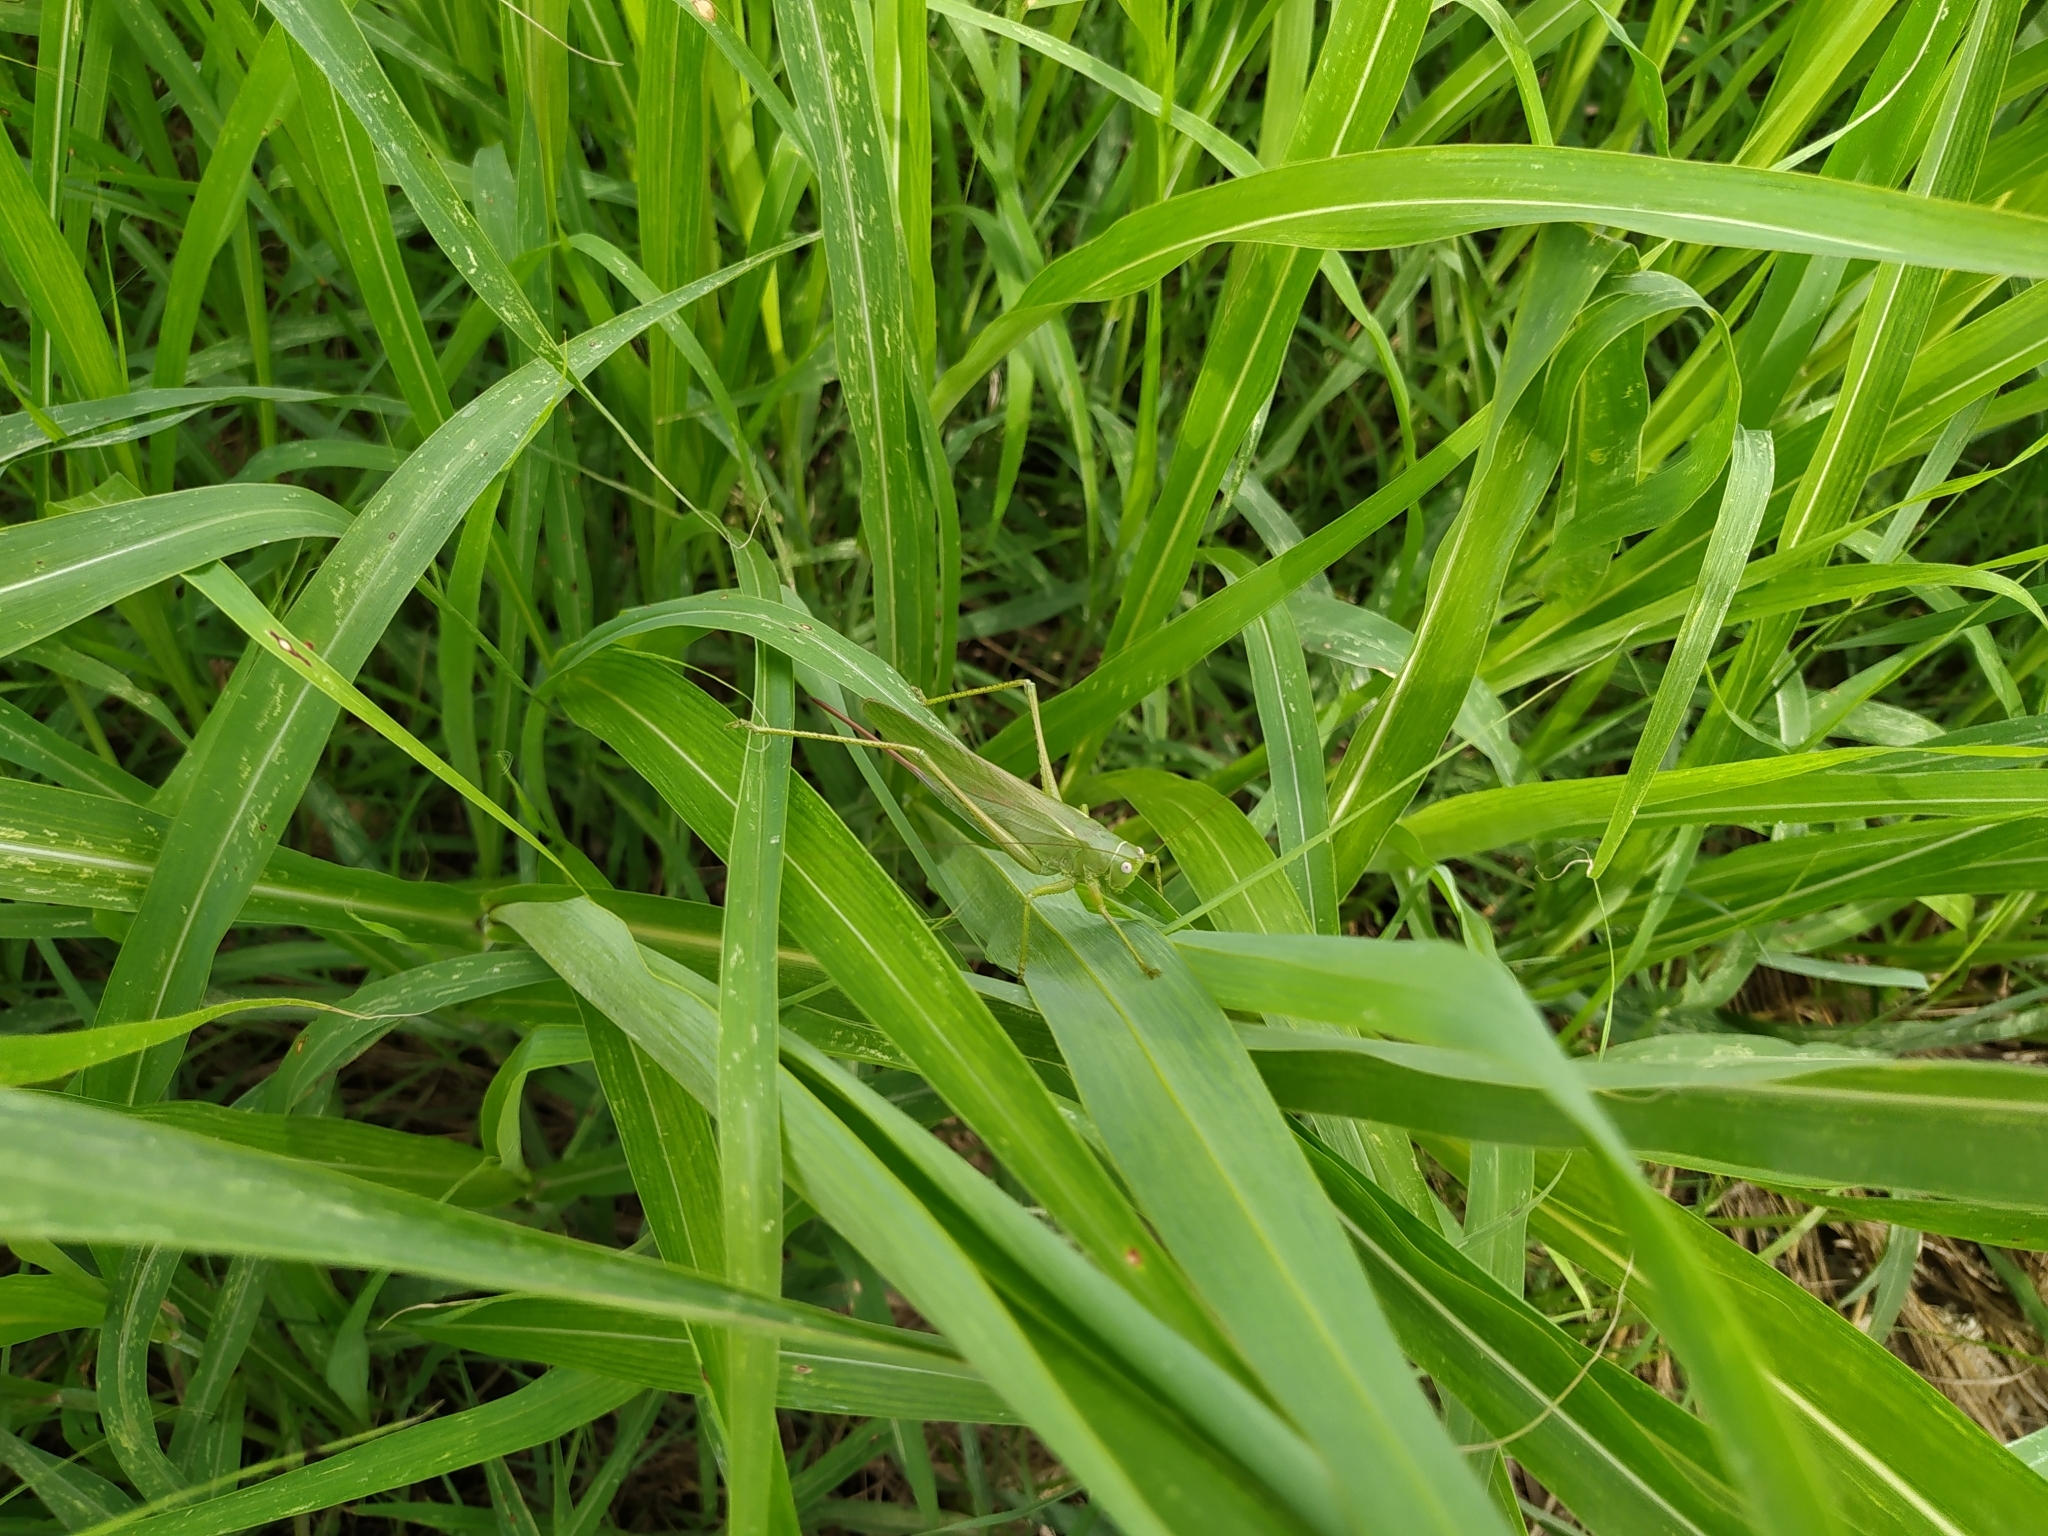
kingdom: Animalia
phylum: Arthropoda
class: Insecta
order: Orthoptera
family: Tettigoniidae
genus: Tettigonia
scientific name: Tettigonia caudata
